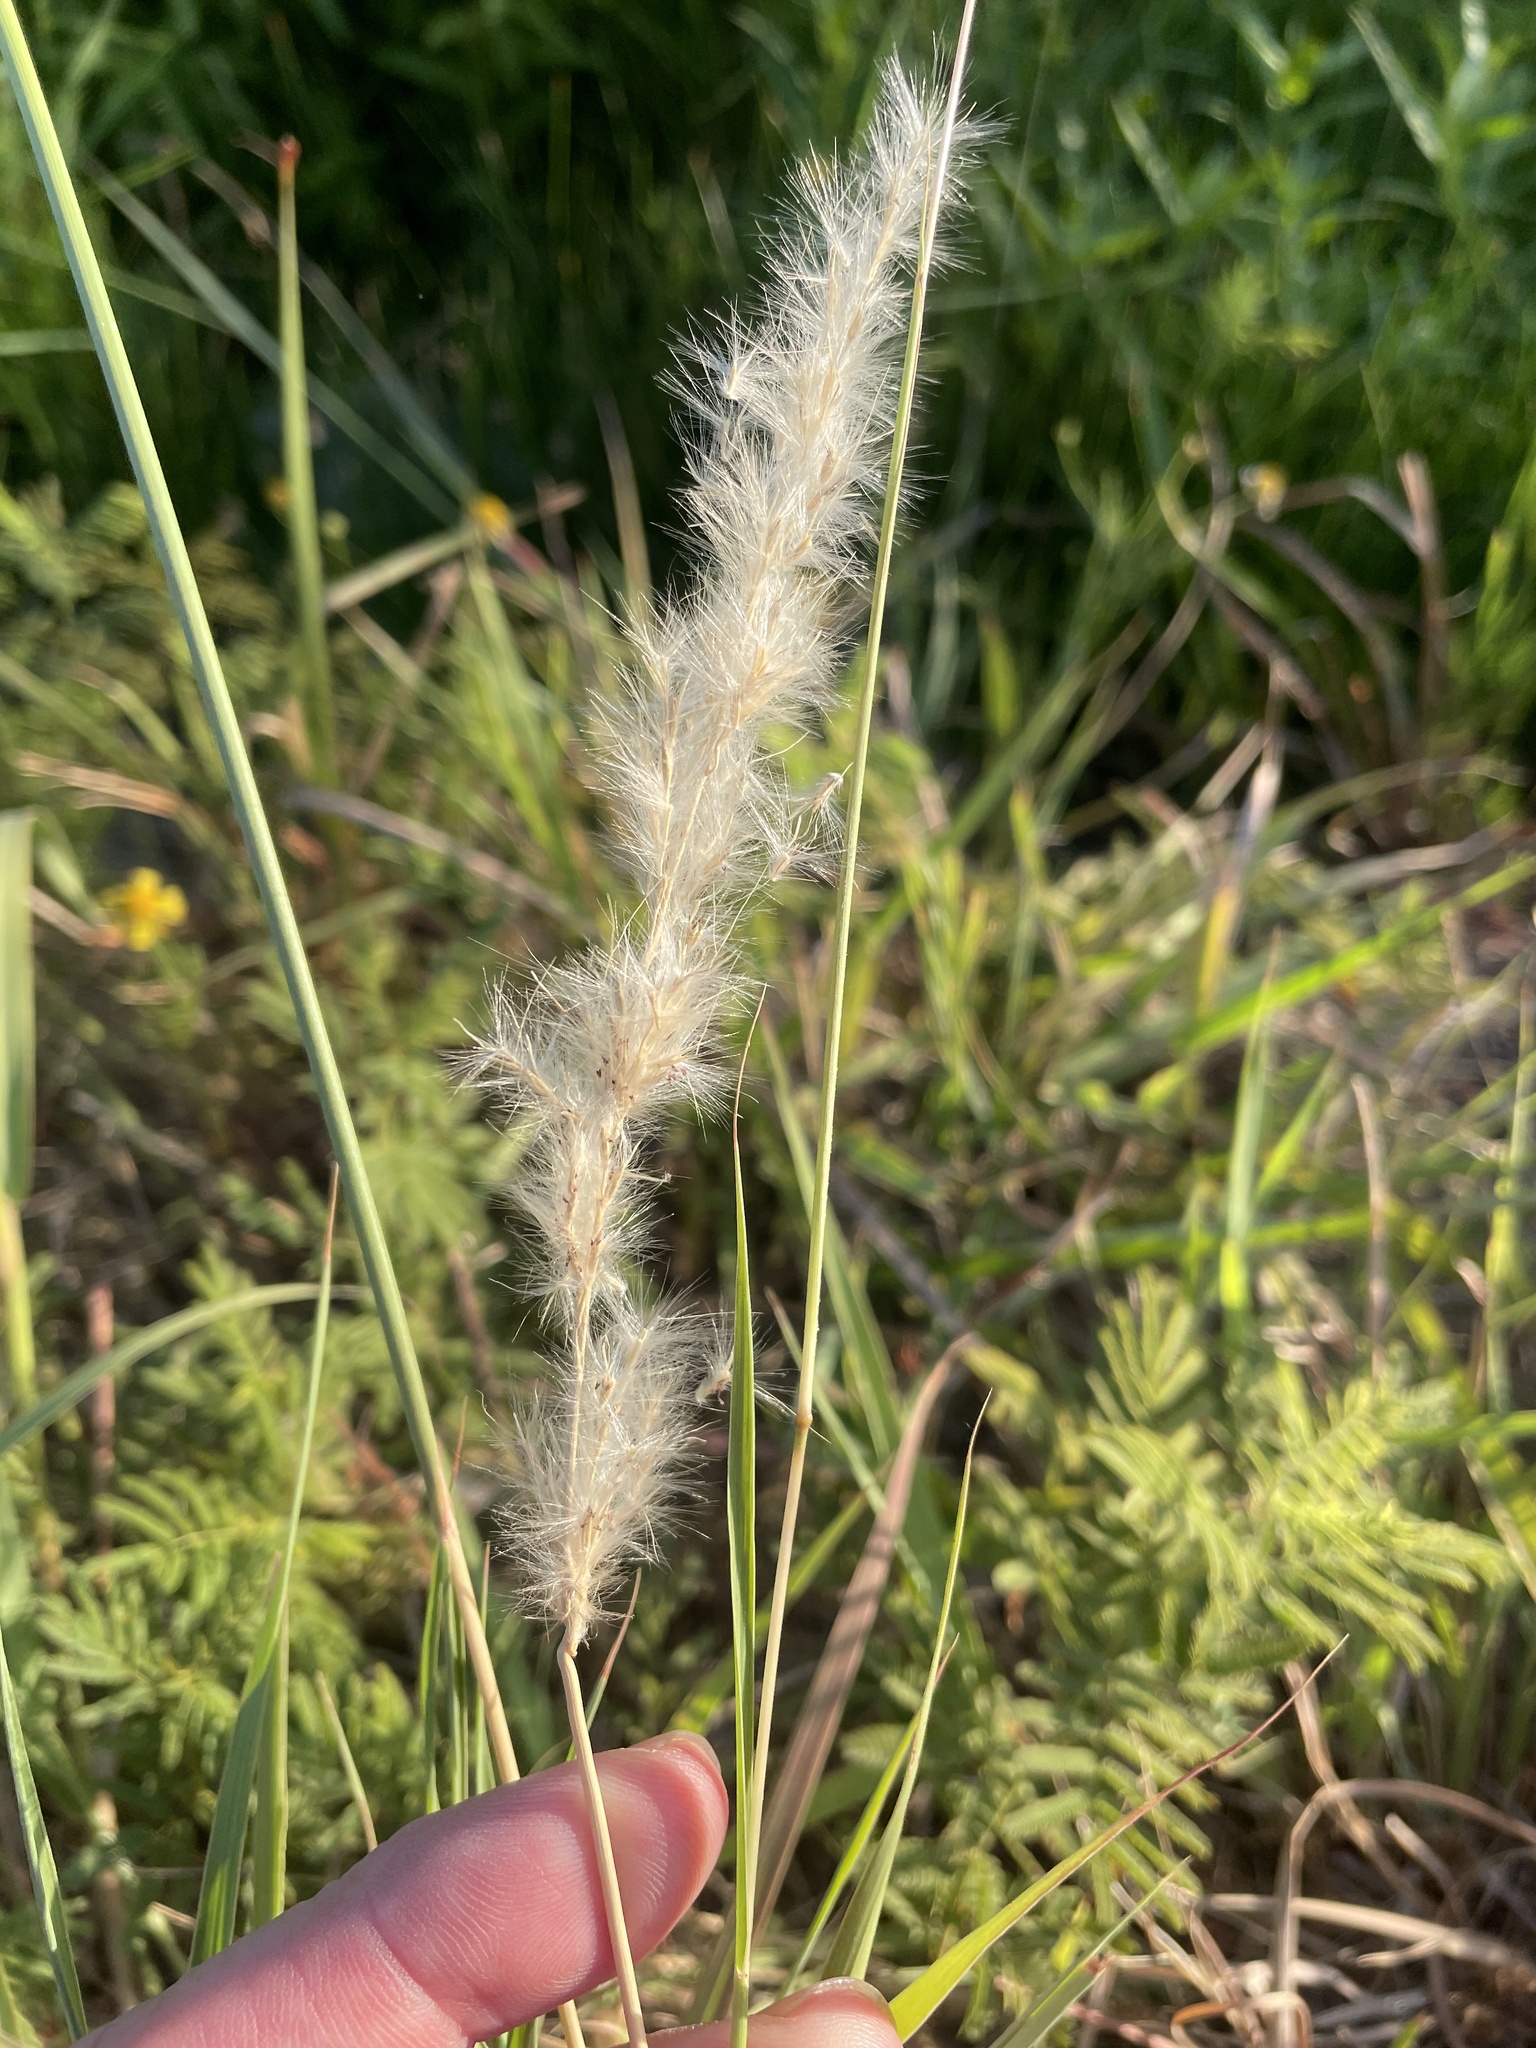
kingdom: Plantae
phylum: Tracheophyta
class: Liliopsida
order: Poales
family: Poaceae
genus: Bothriochloa
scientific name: Bothriochloa torreyana
